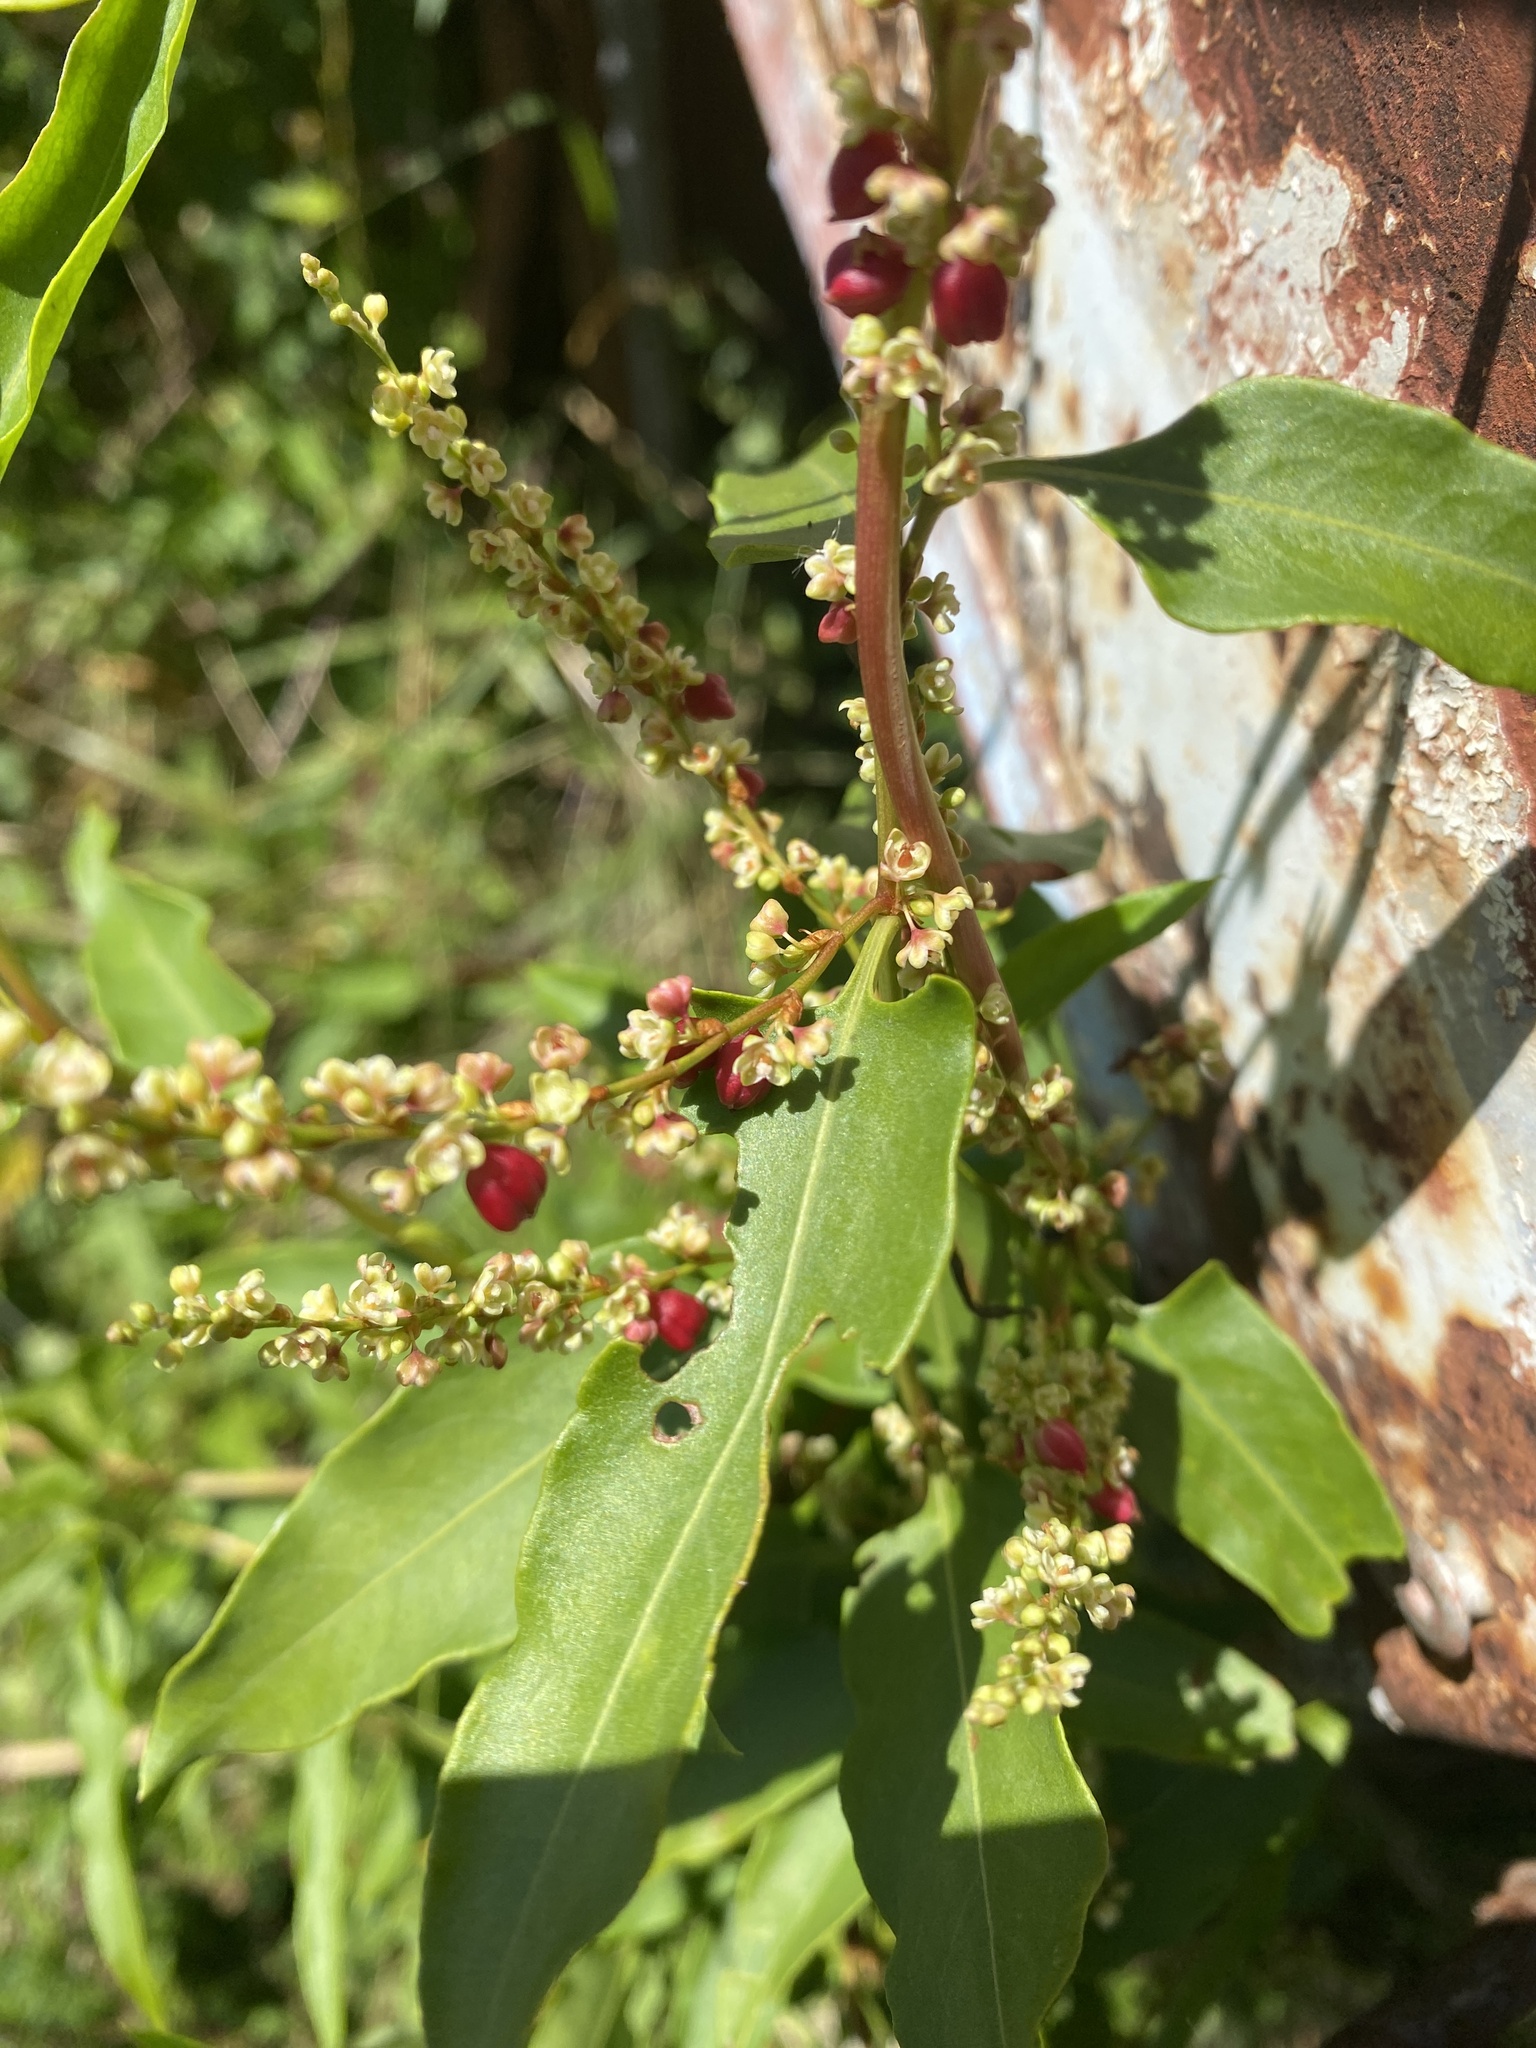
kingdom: Plantae
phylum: Tracheophyta
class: Magnoliopsida
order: Caryophyllales
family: Polygonaceae
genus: Muehlenbeckia
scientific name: Muehlenbeckia sagittifolia
